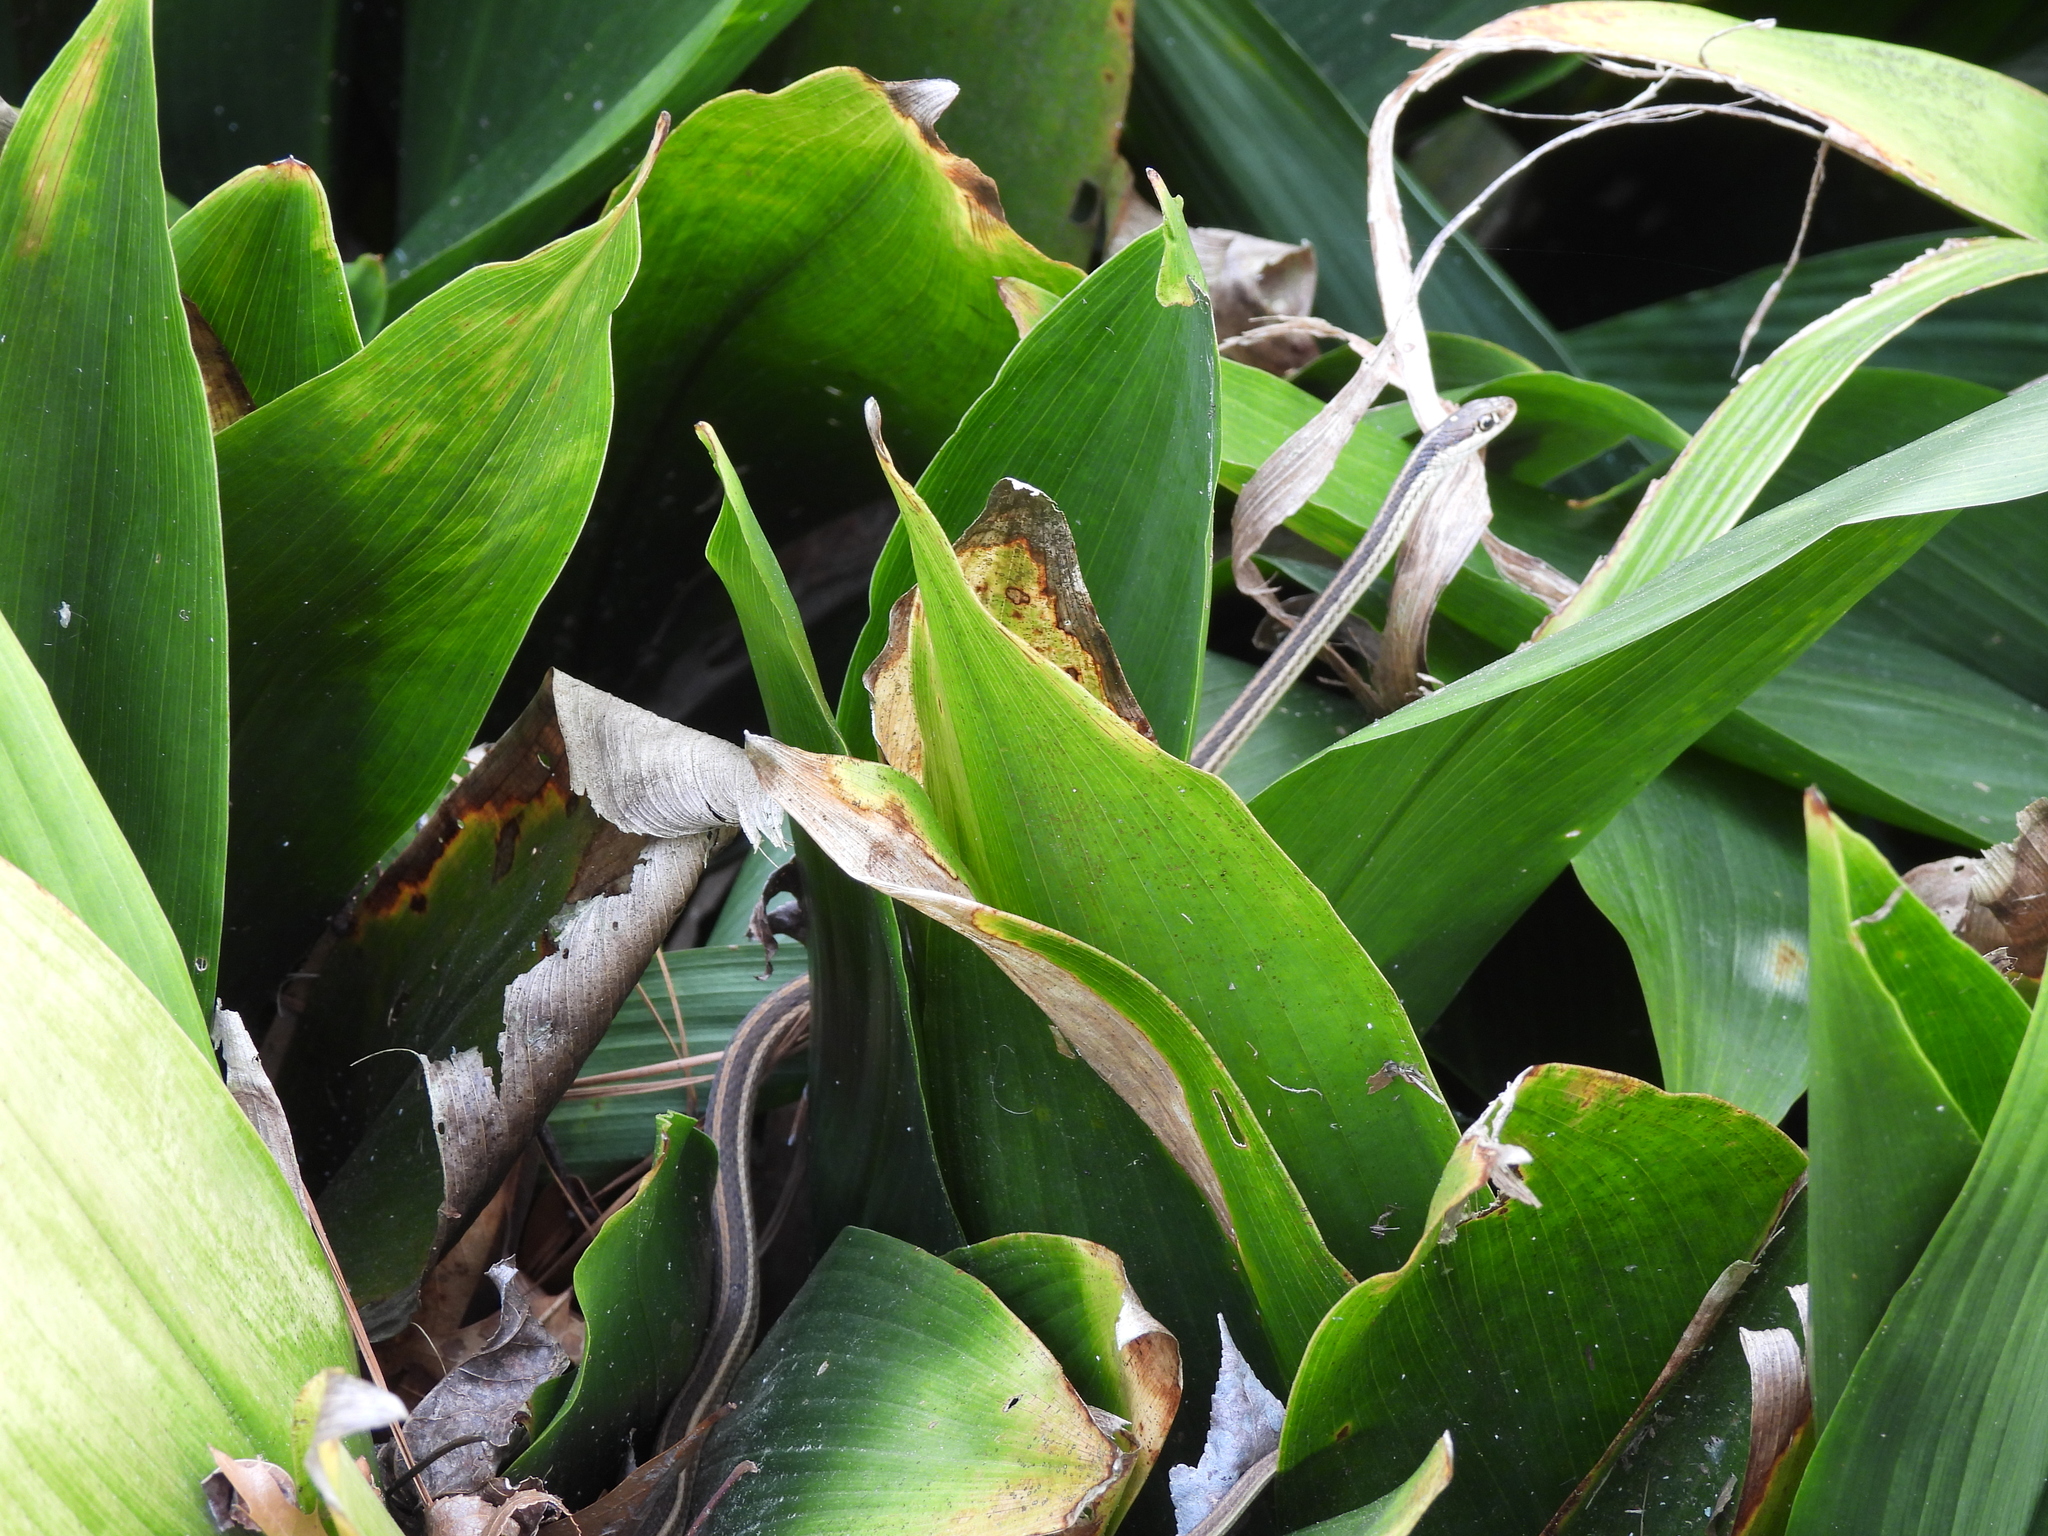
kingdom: Animalia
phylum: Chordata
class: Squamata
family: Colubridae
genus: Thamnophis
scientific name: Thamnophis proximus
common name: Western ribbon snake
